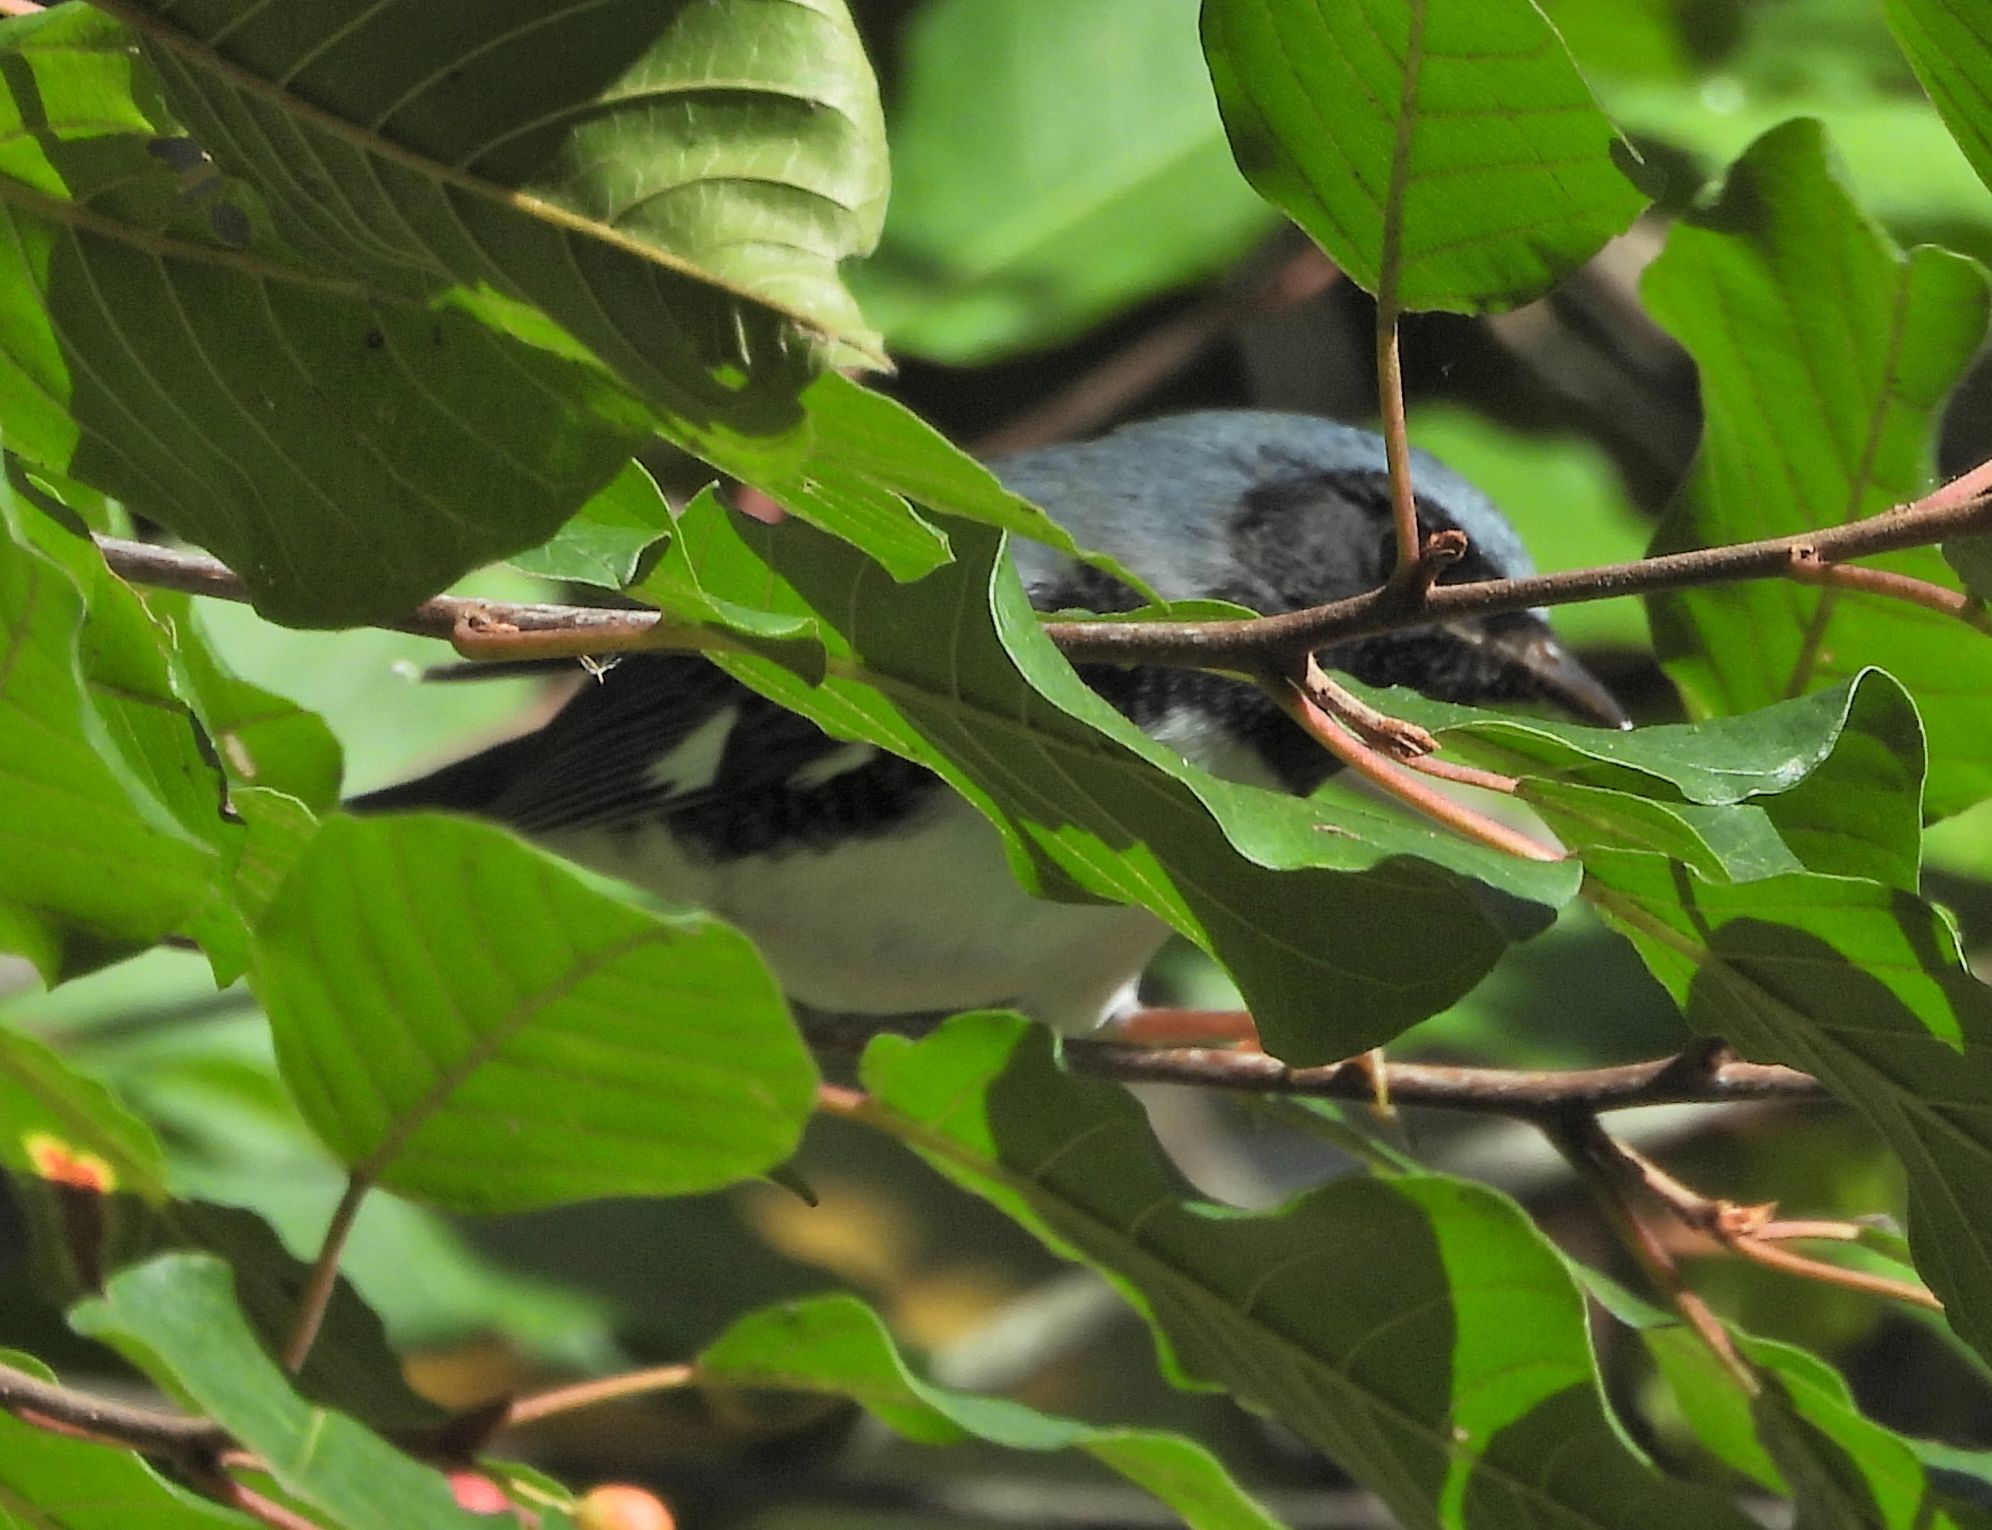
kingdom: Animalia
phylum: Chordata
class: Aves
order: Passeriformes
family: Parulidae
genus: Setophaga
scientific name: Setophaga caerulescens
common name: Black-throated blue warbler
